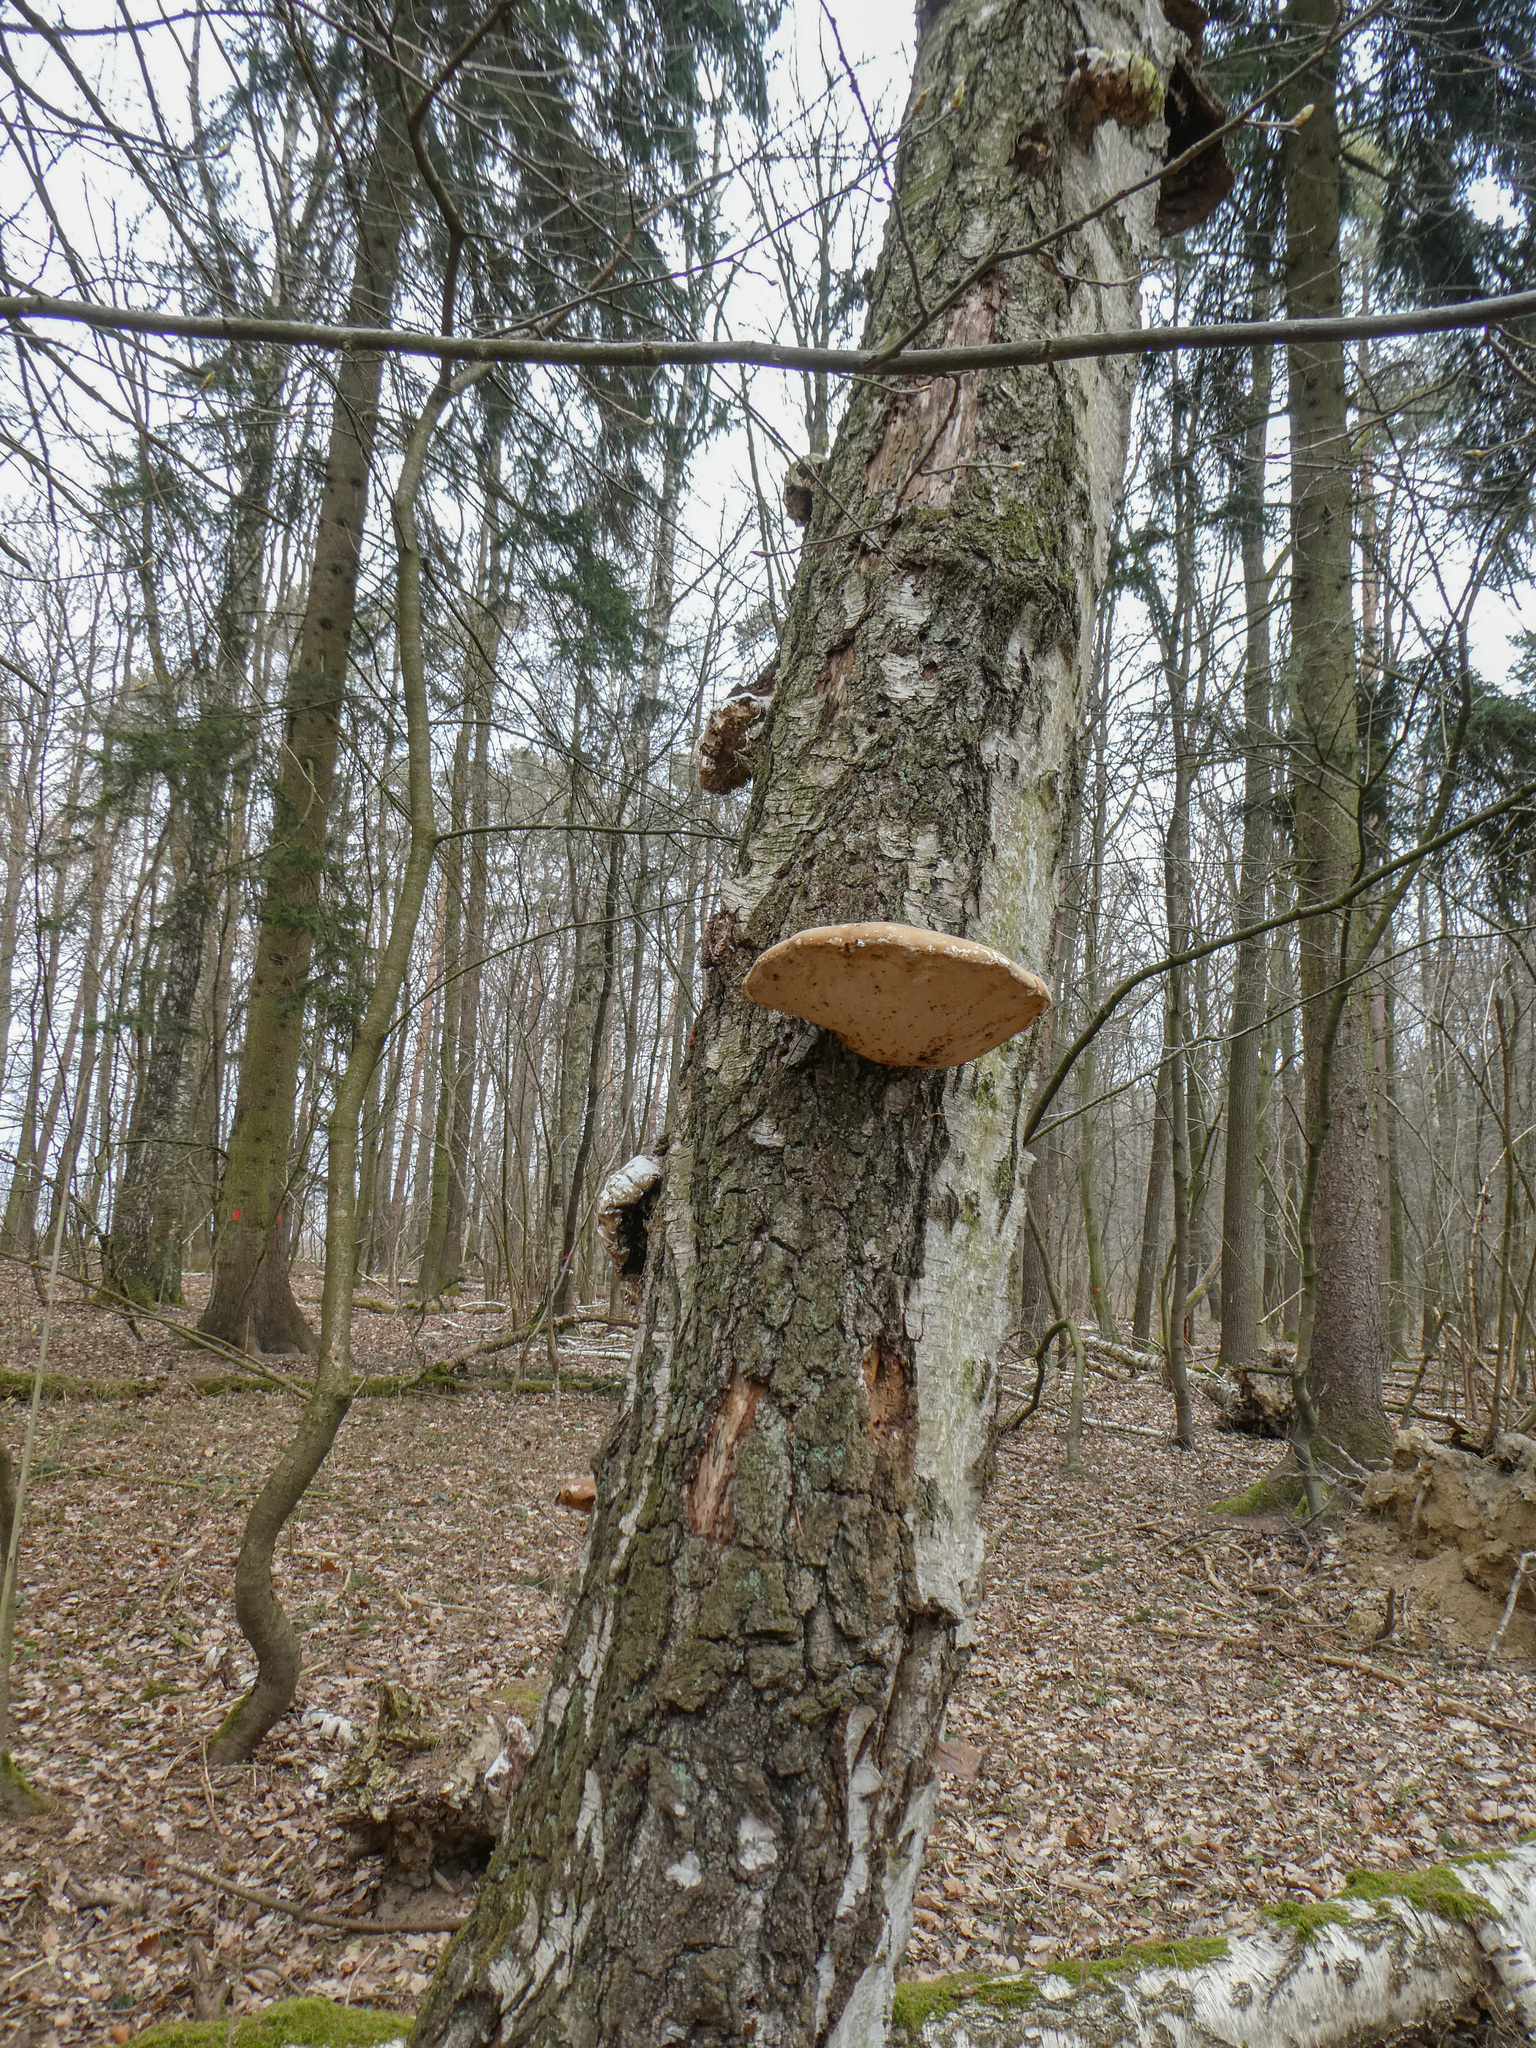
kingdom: Fungi
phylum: Basidiomycota
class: Agaricomycetes
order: Polyporales
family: Fomitopsidaceae
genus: Fomitopsis
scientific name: Fomitopsis betulina
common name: Birch polypore
